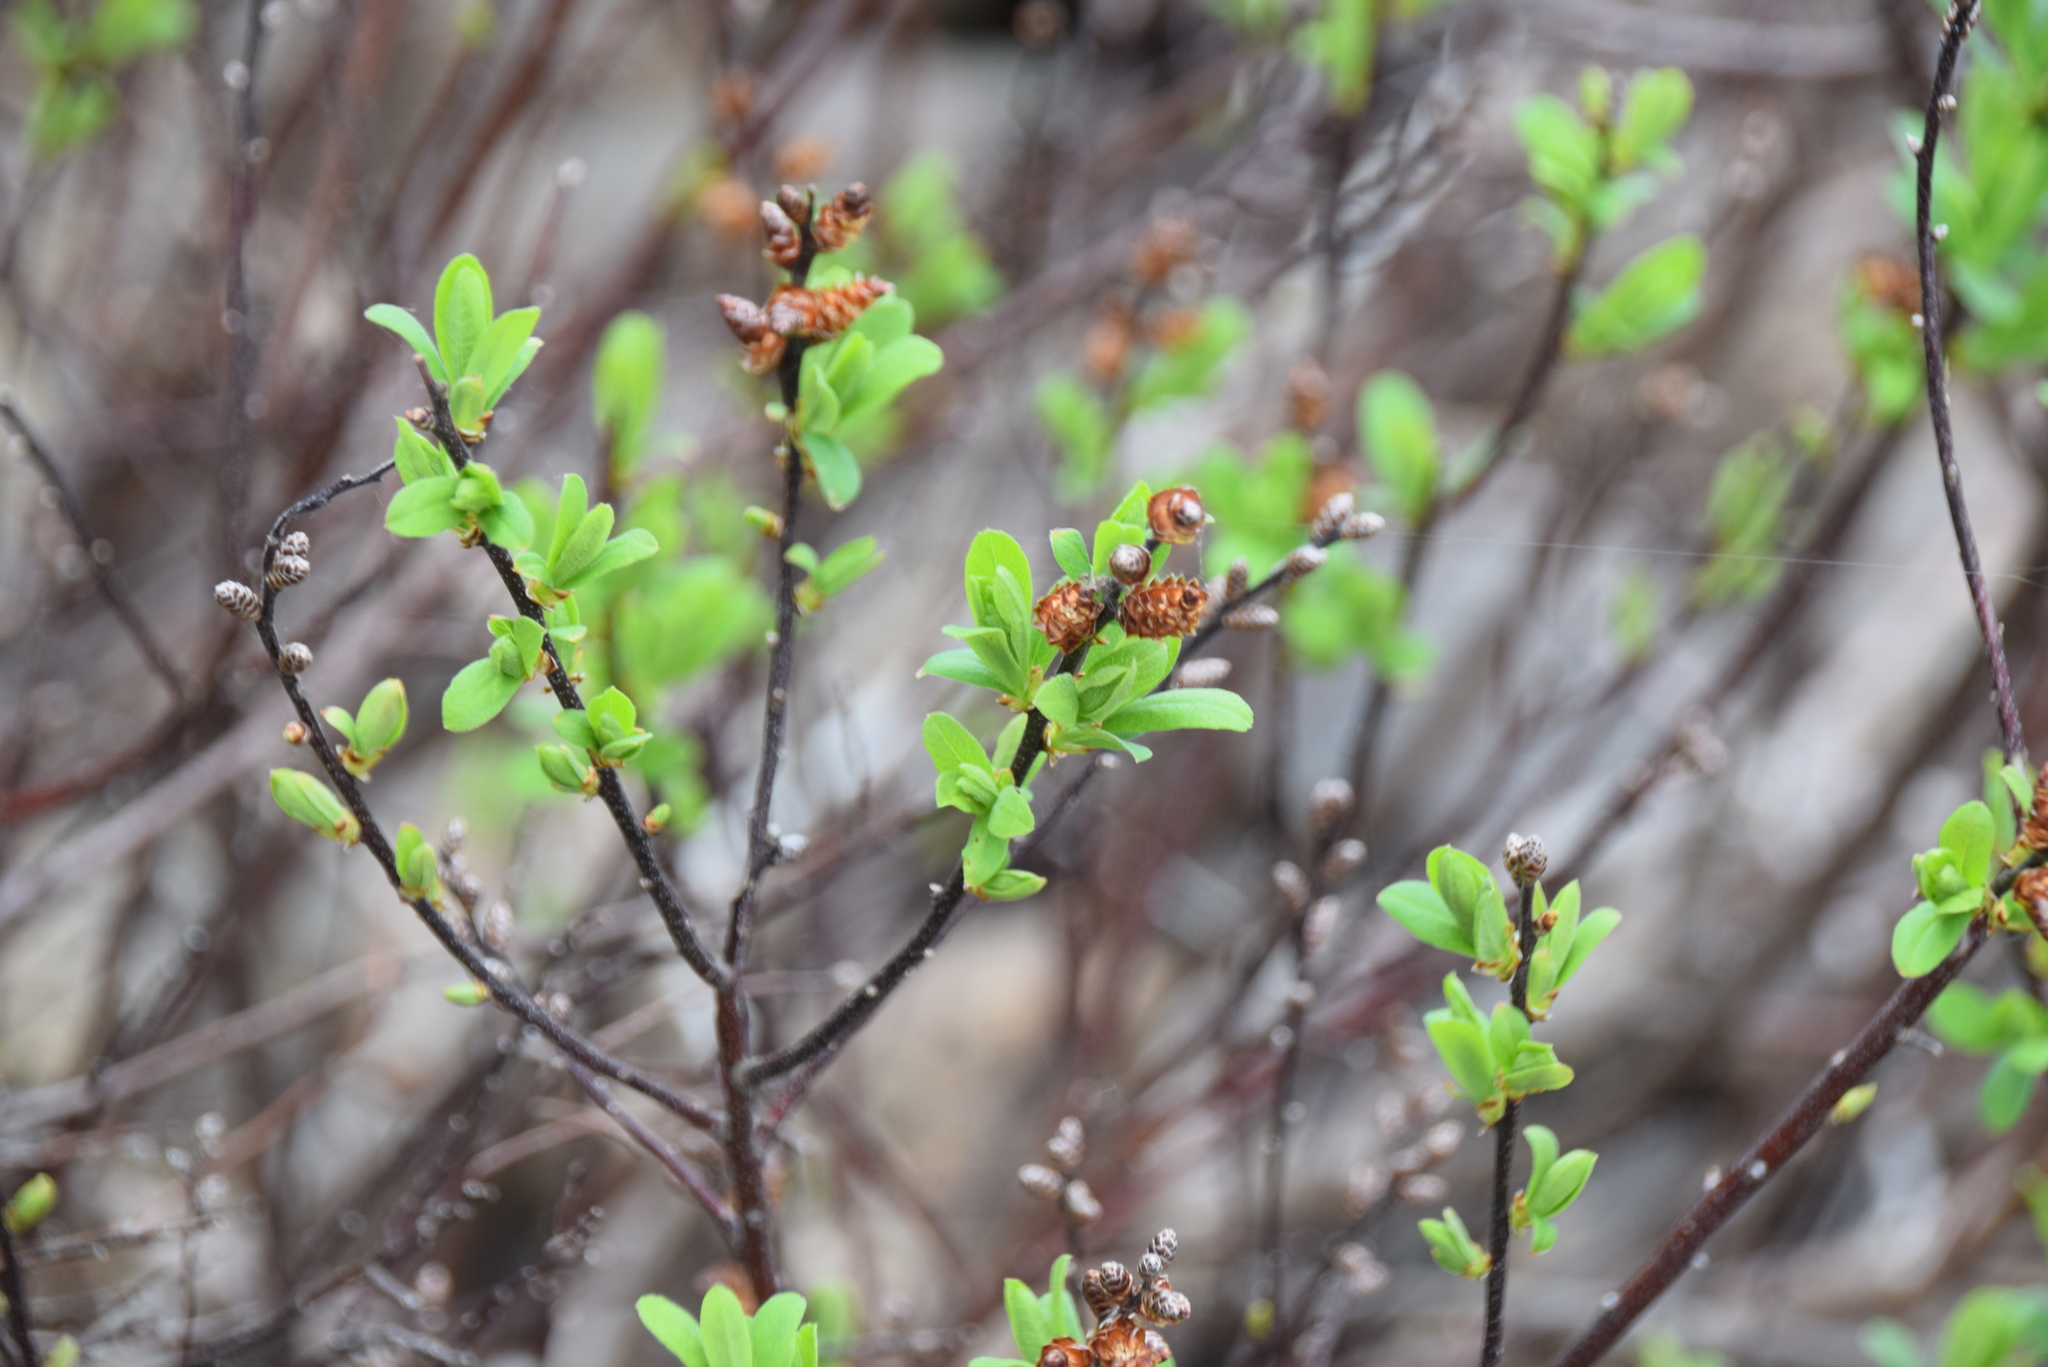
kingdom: Plantae
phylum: Tracheophyta
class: Magnoliopsida
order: Fagales
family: Myricaceae
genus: Myrica
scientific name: Myrica gale
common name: Sweet gale
